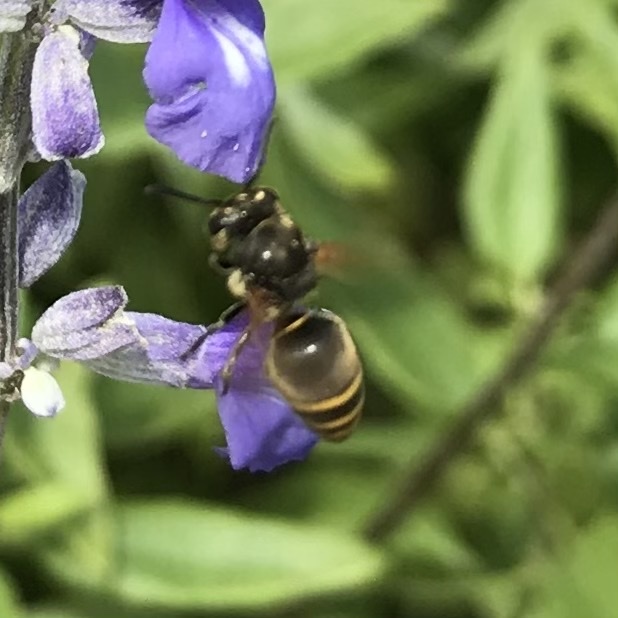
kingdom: Animalia
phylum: Arthropoda
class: Insecta
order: Hymenoptera
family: Vespidae
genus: Brachygastra
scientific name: Brachygastra mellifica
